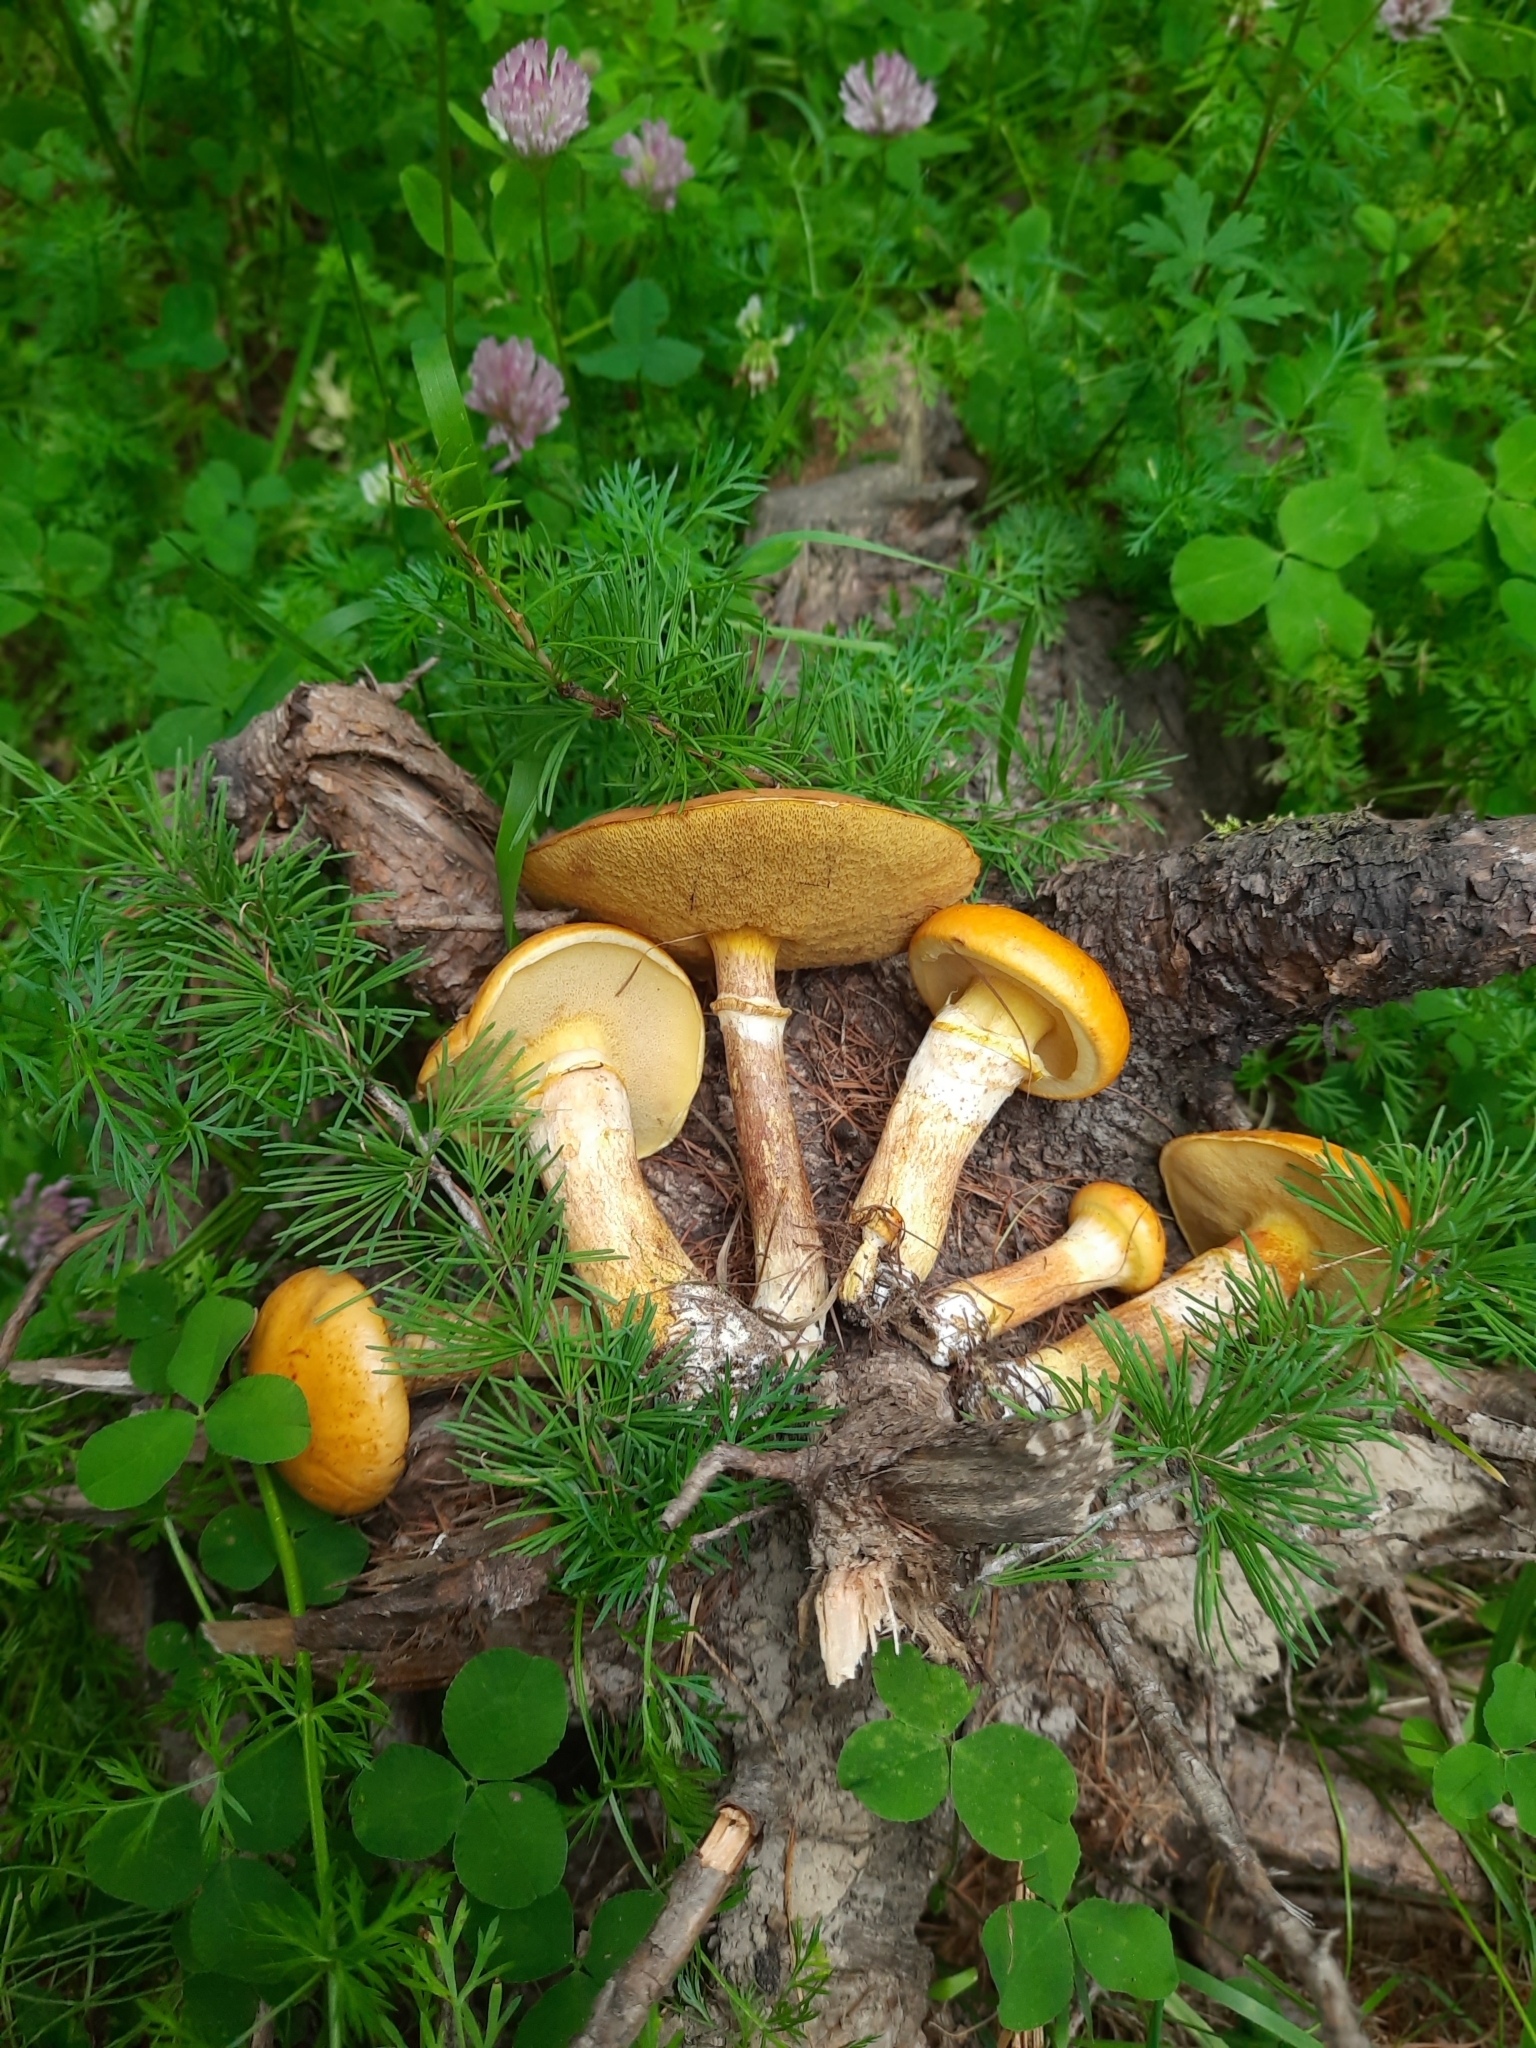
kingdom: Fungi
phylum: Basidiomycota
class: Agaricomycetes
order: Boletales
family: Suillaceae
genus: Suillus
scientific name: Suillus grevillei
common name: Larch bolete
